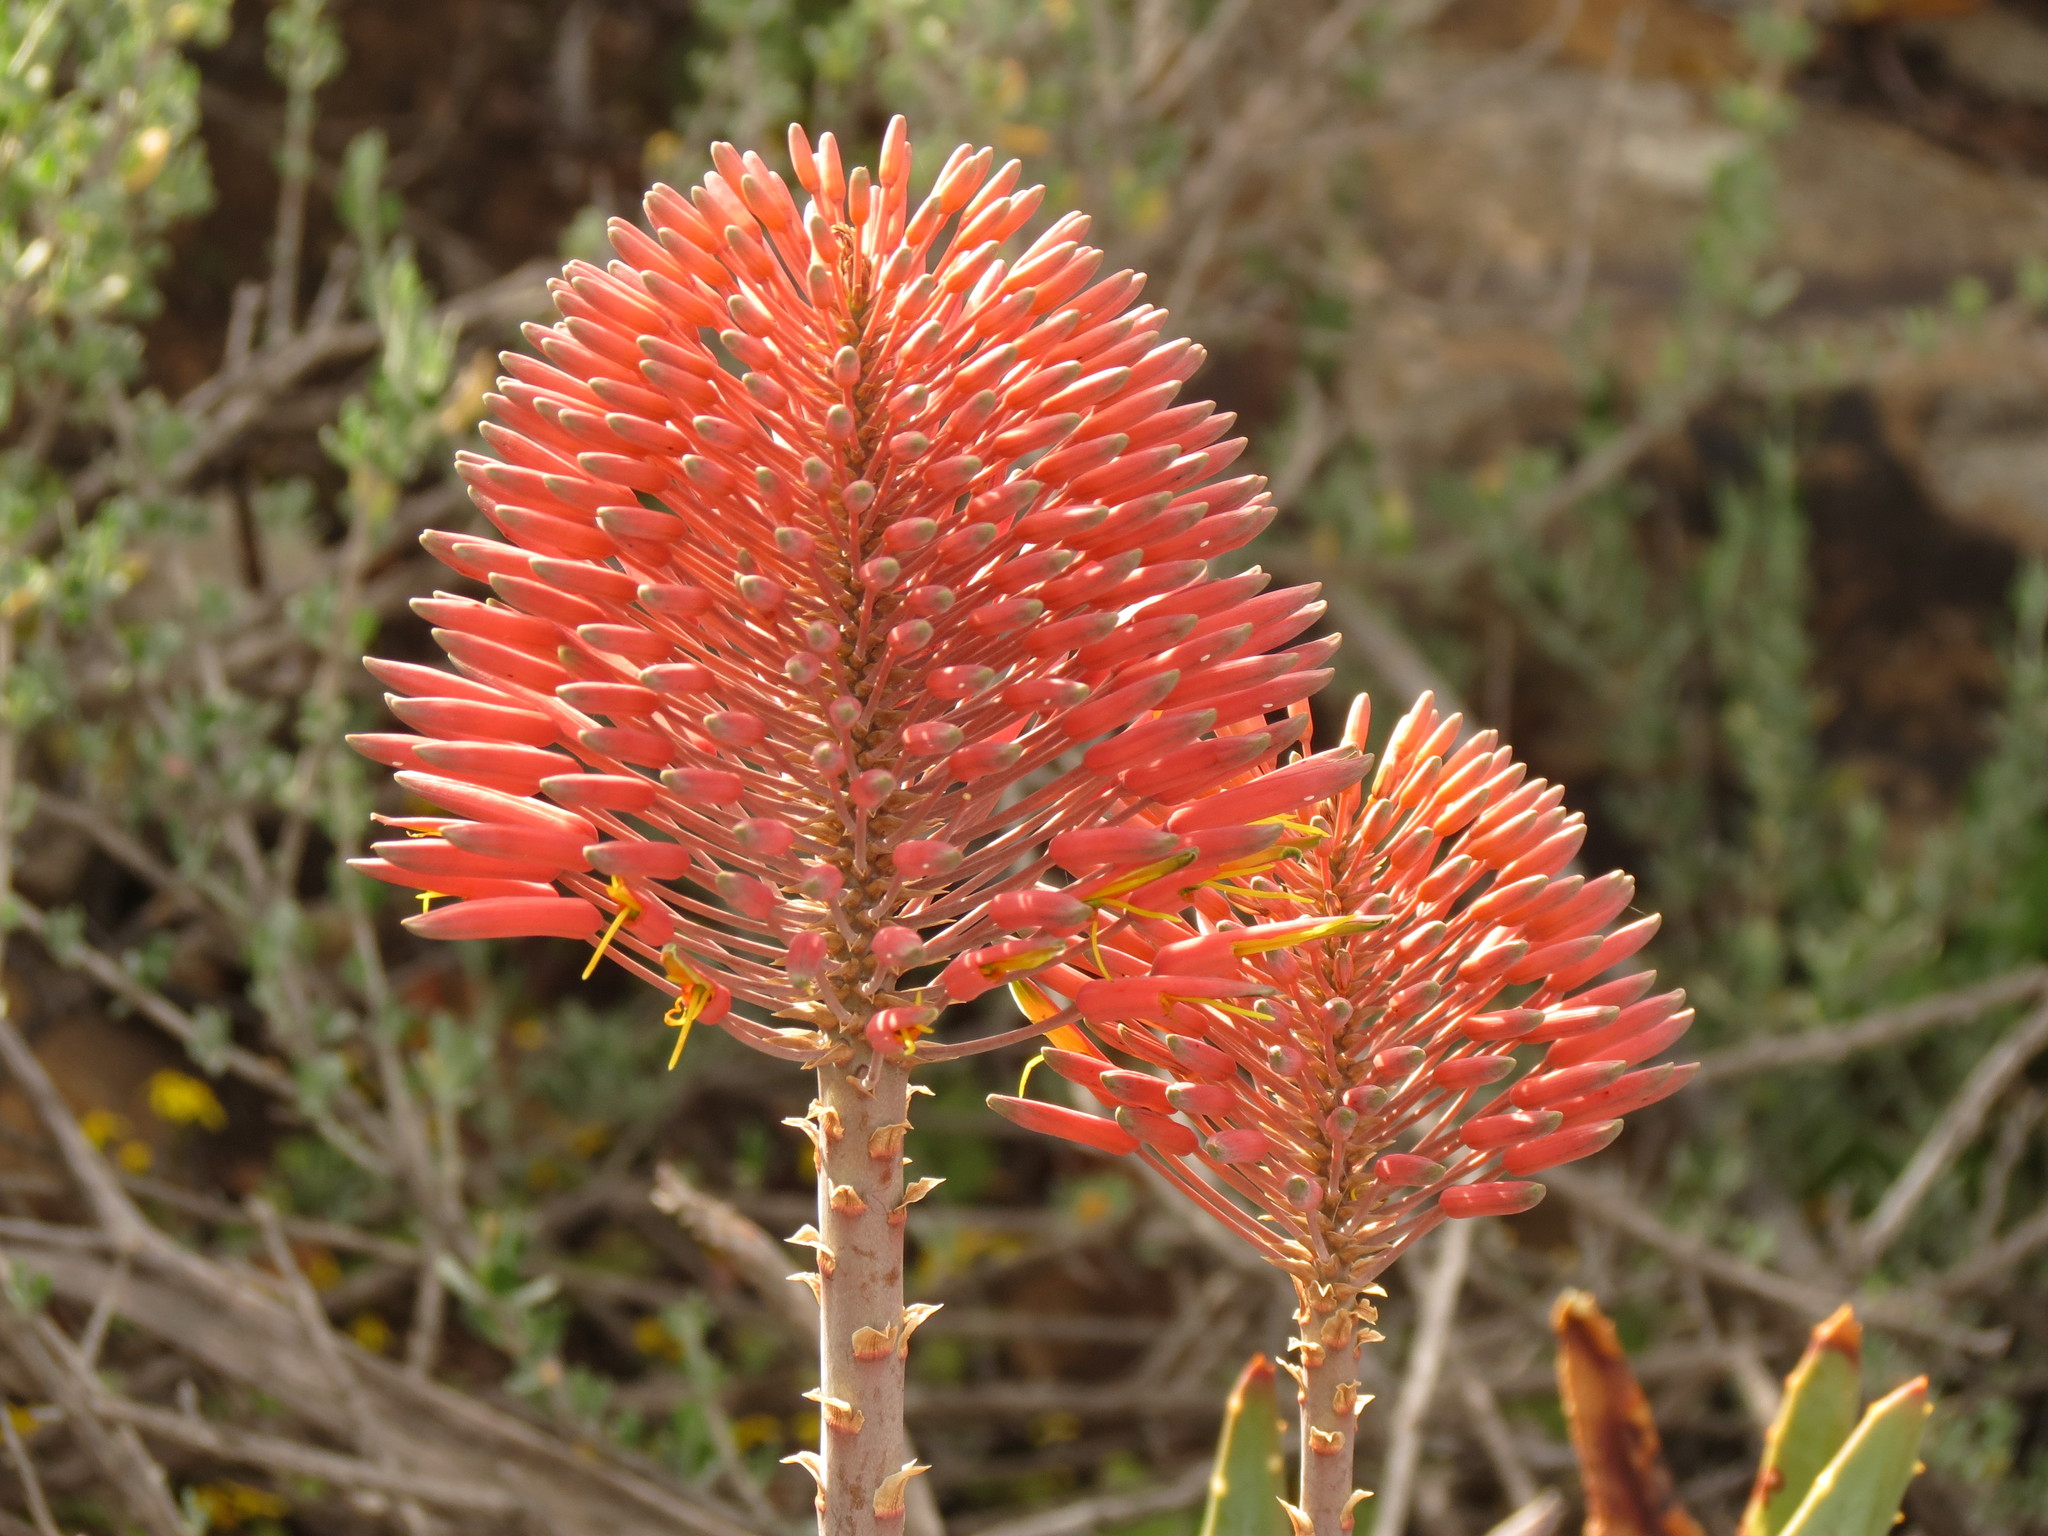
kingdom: Plantae
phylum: Tracheophyta
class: Liliopsida
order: Asparagales
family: Asphodelaceae
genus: Aloe
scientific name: Aloe comptonii
